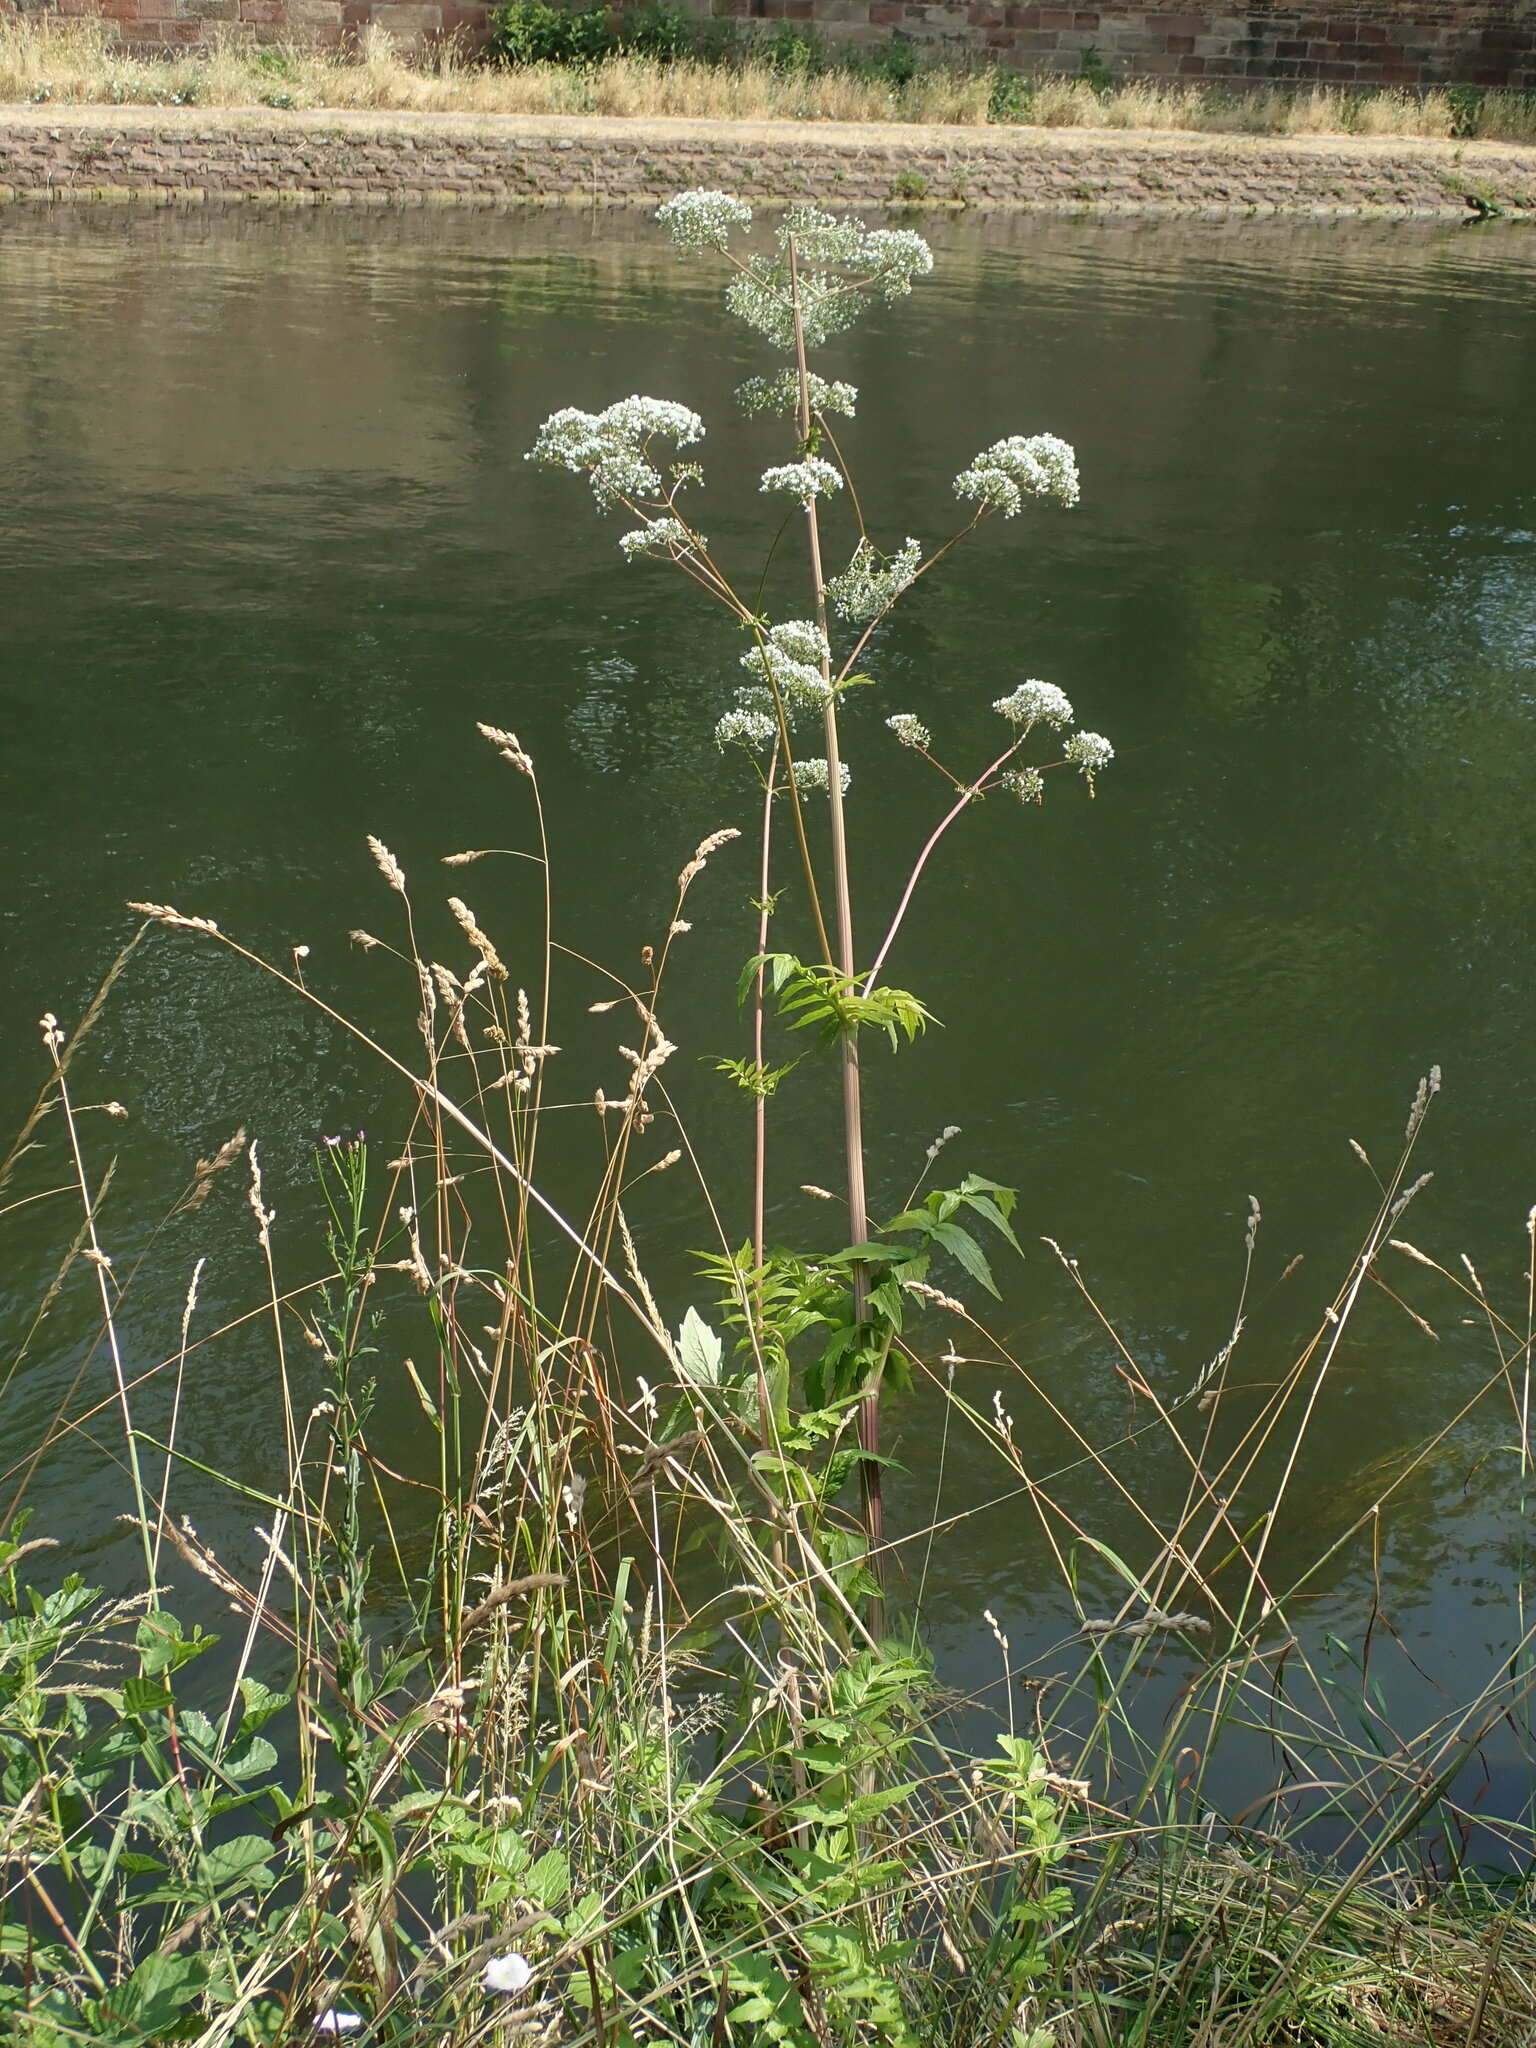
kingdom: Plantae
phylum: Tracheophyta
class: Magnoliopsida
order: Dipsacales
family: Caprifoliaceae
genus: Valeriana
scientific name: Valeriana officinalis
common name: Common valerian
